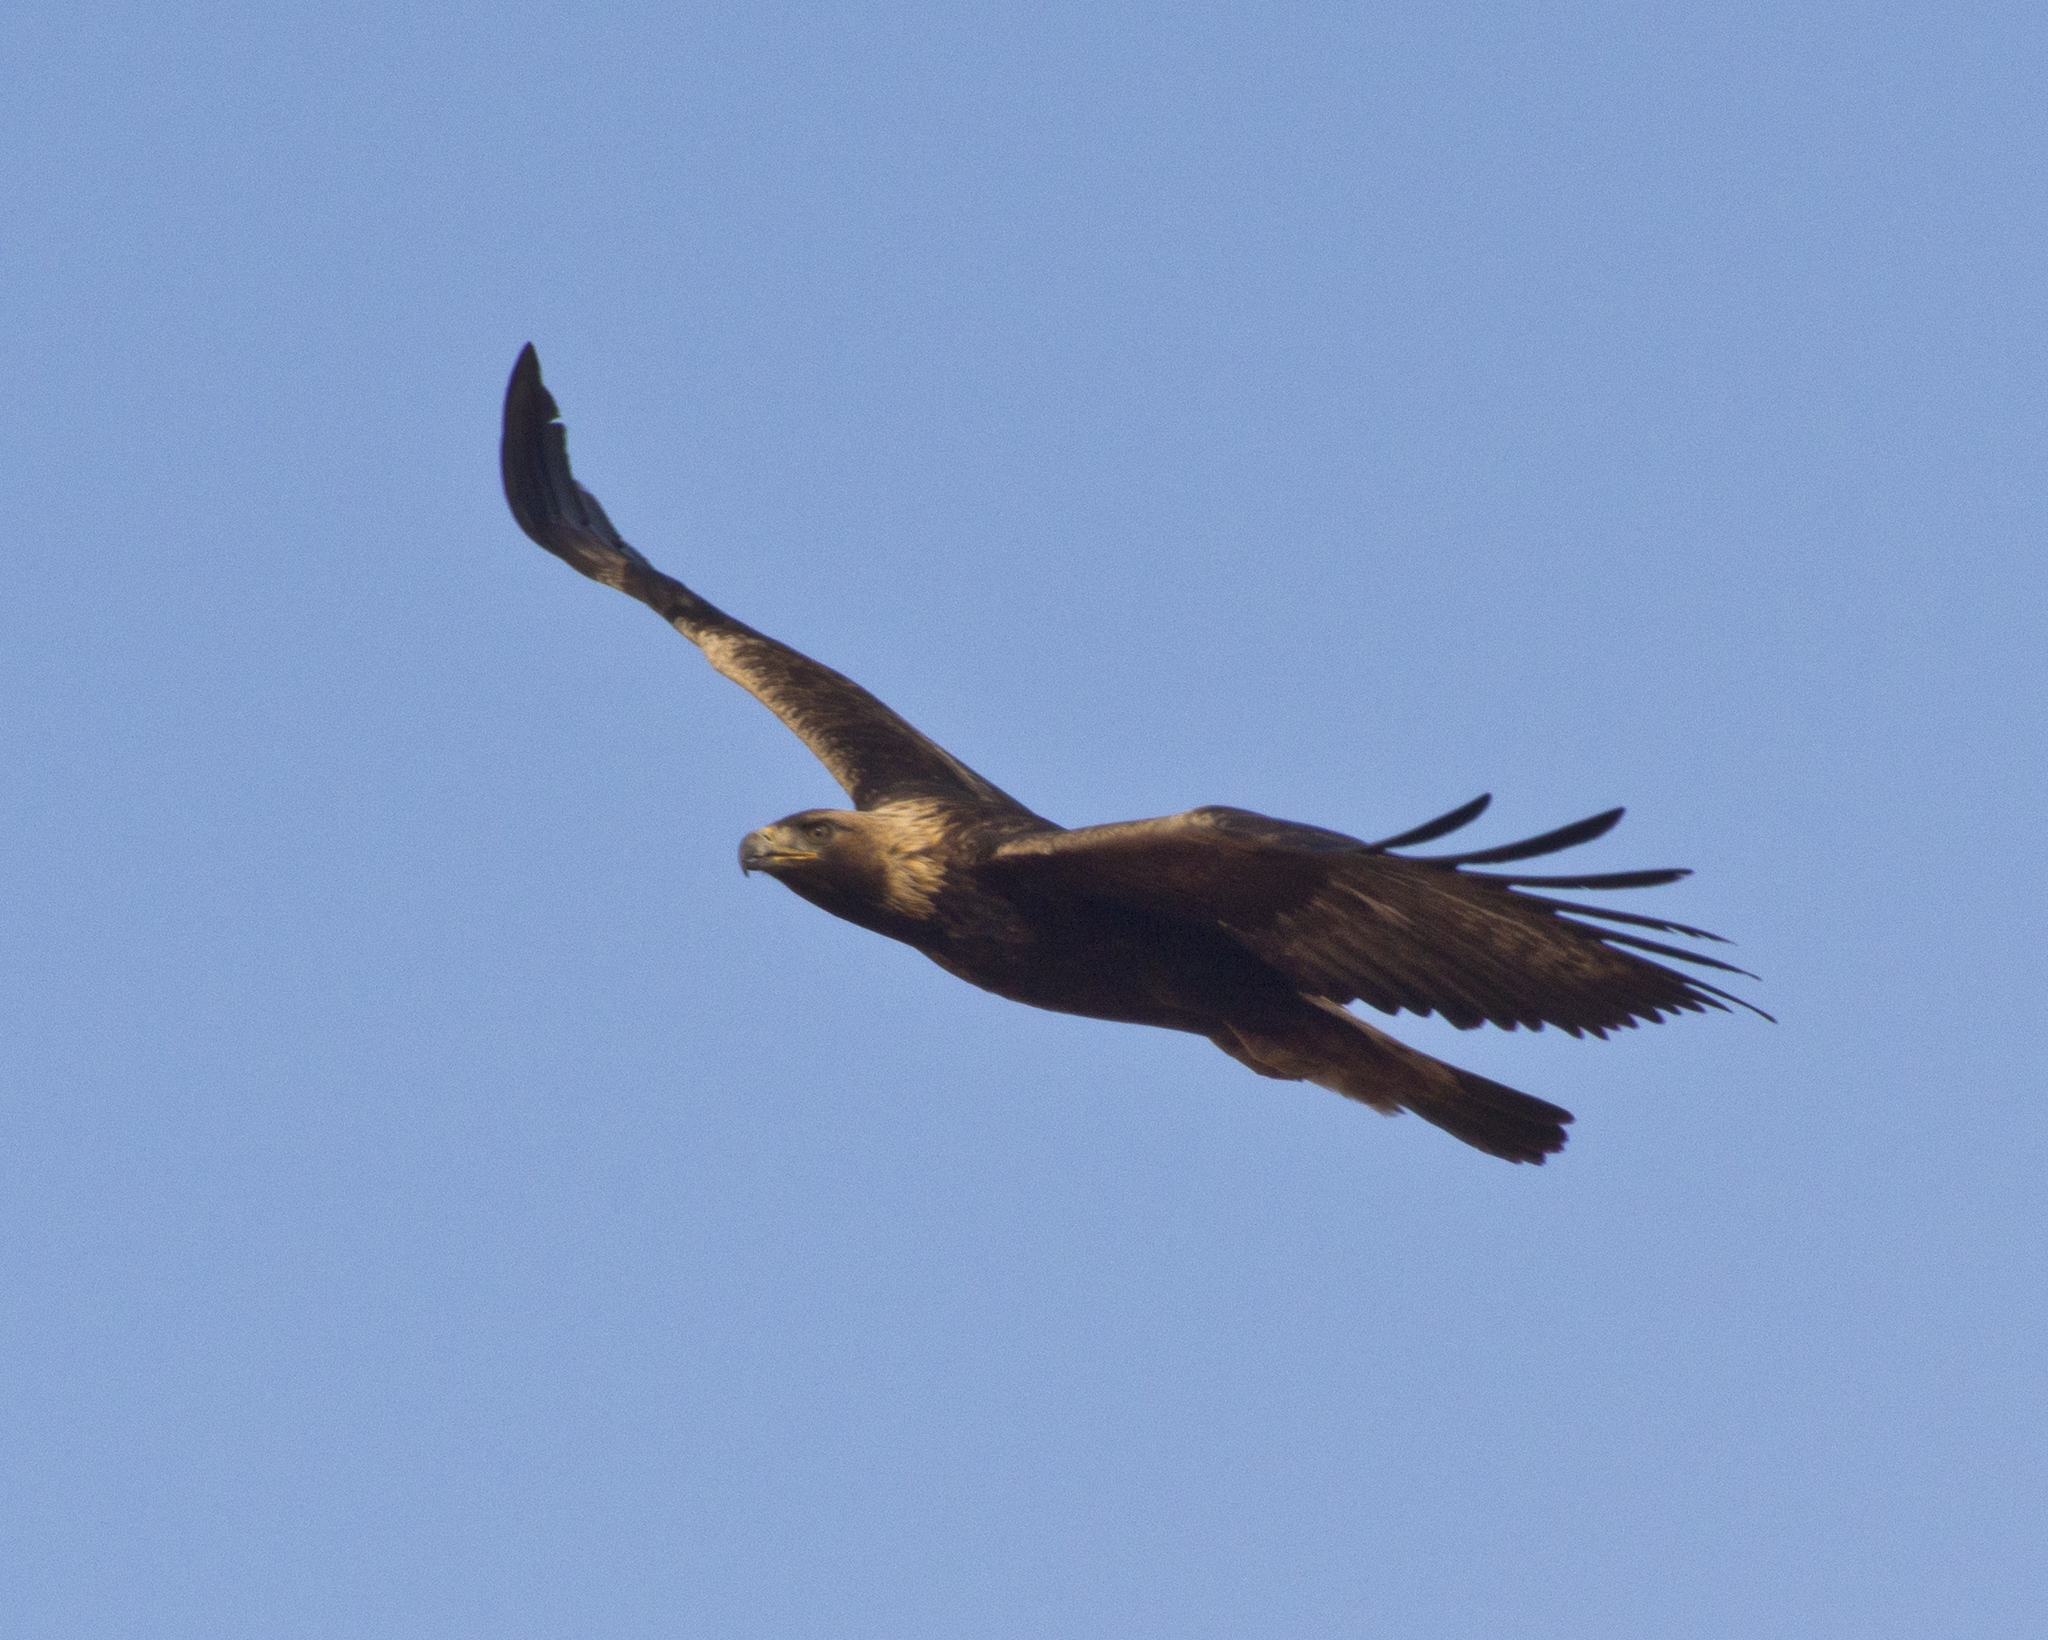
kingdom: Animalia
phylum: Chordata
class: Aves
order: Accipitriformes
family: Accipitridae
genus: Aquila
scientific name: Aquila chrysaetos
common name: Golden eagle
